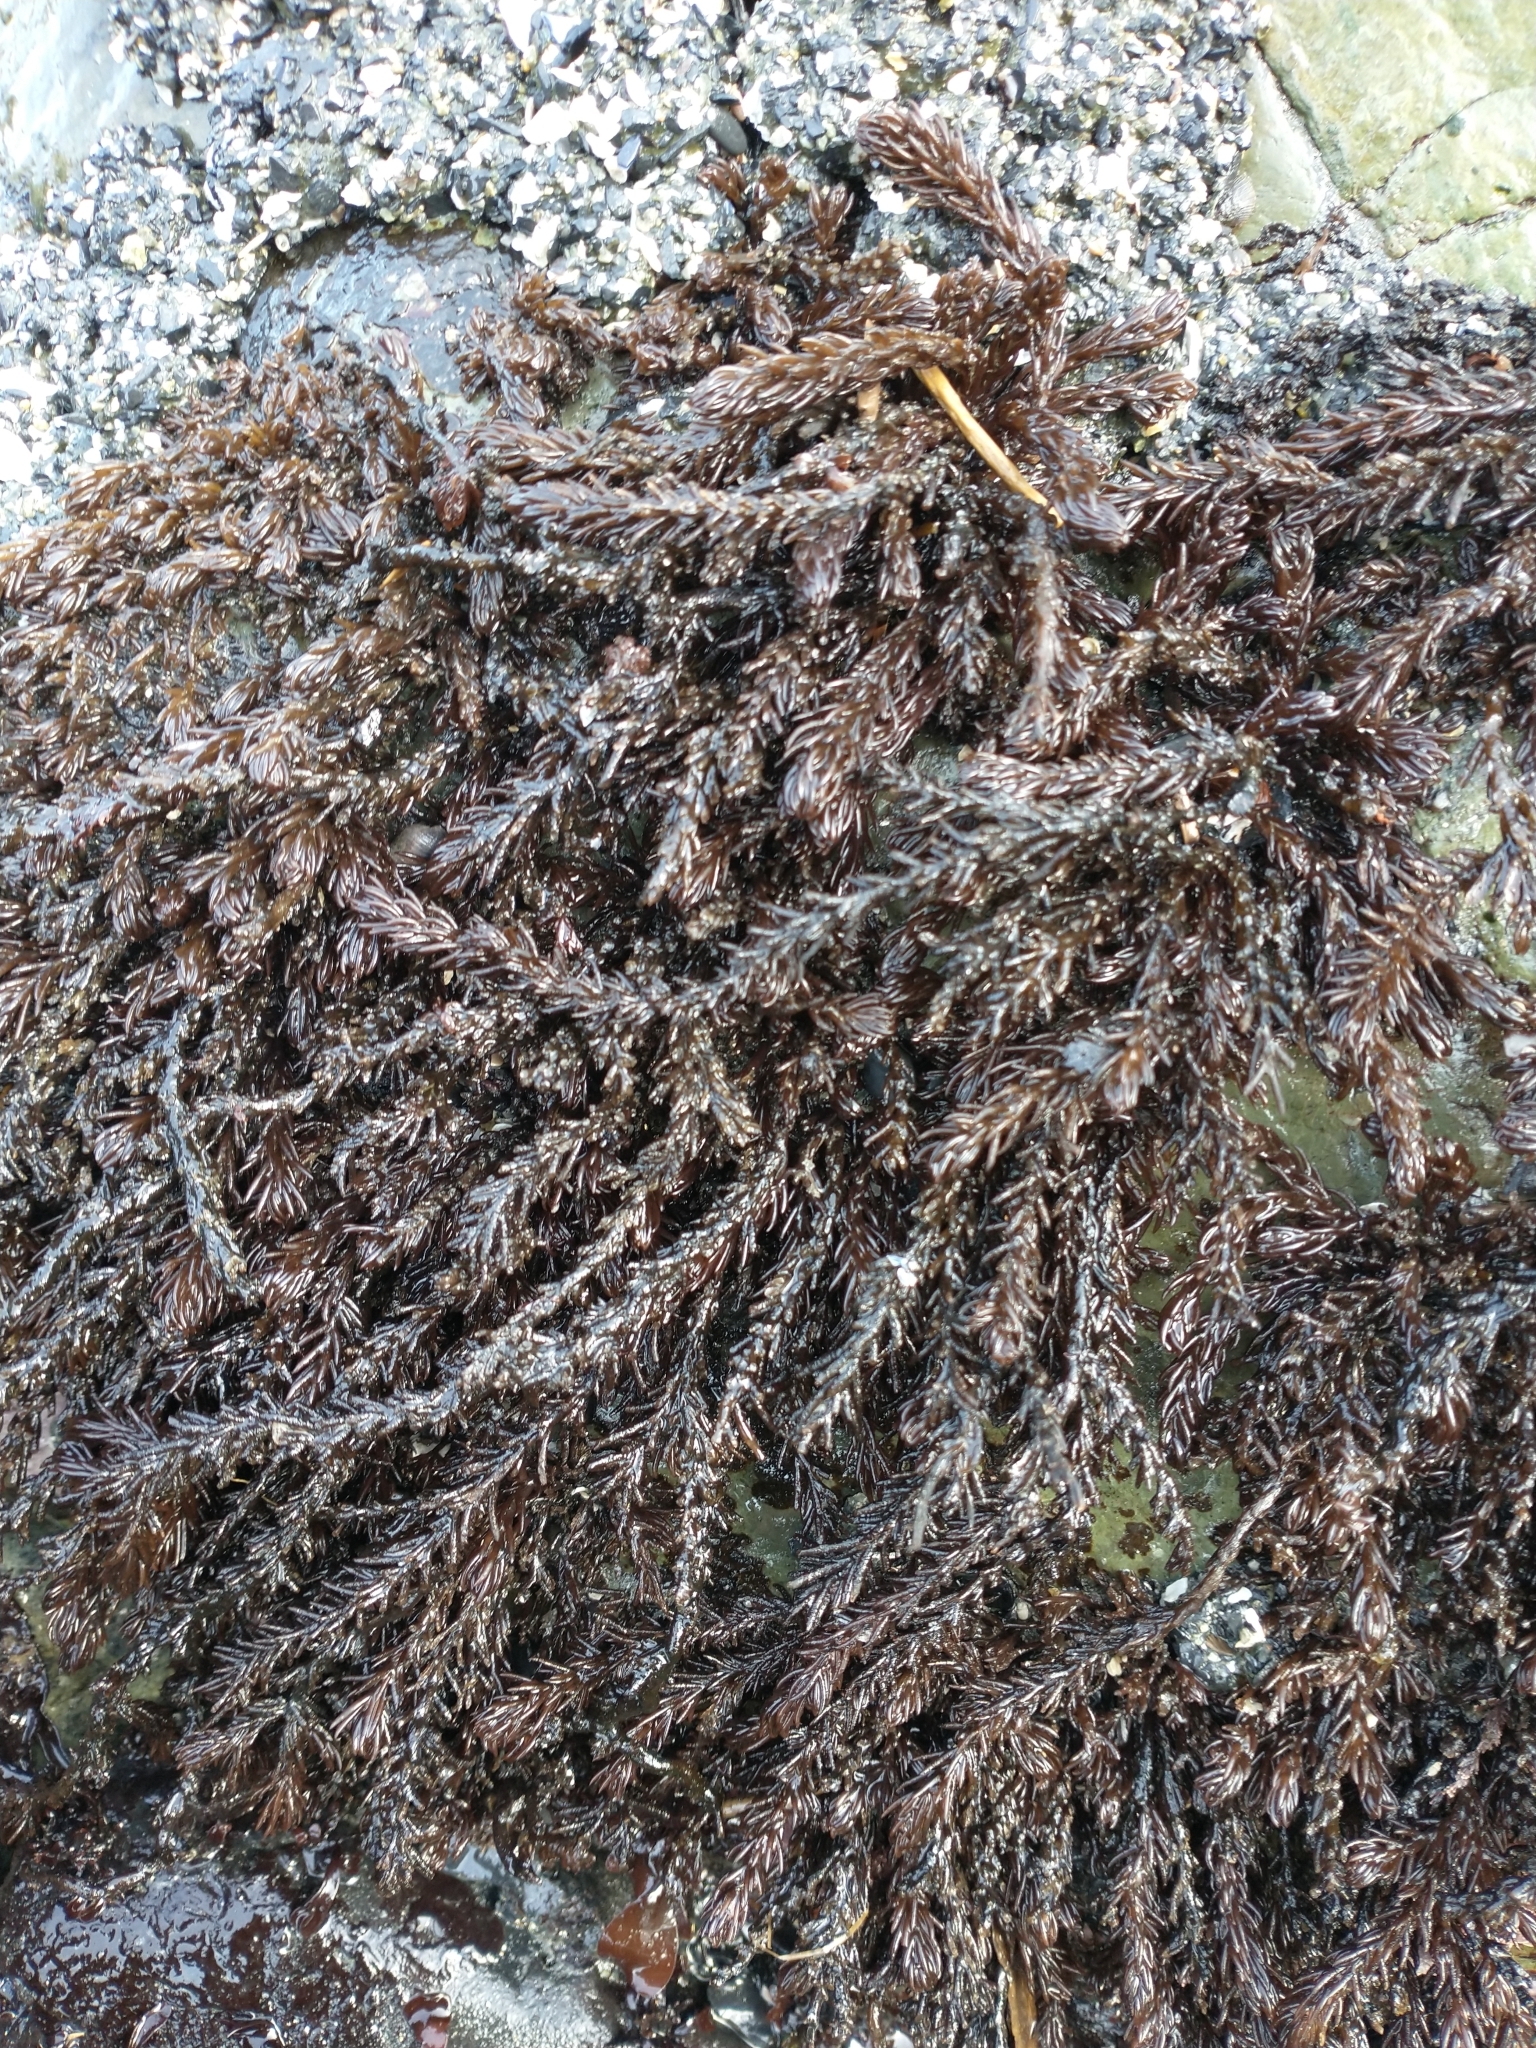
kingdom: Plantae
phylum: Rhodophyta
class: Florideophyceae
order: Ceramiales
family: Rhodomelaceae
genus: Neorhodomela
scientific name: Neorhodomela larix
